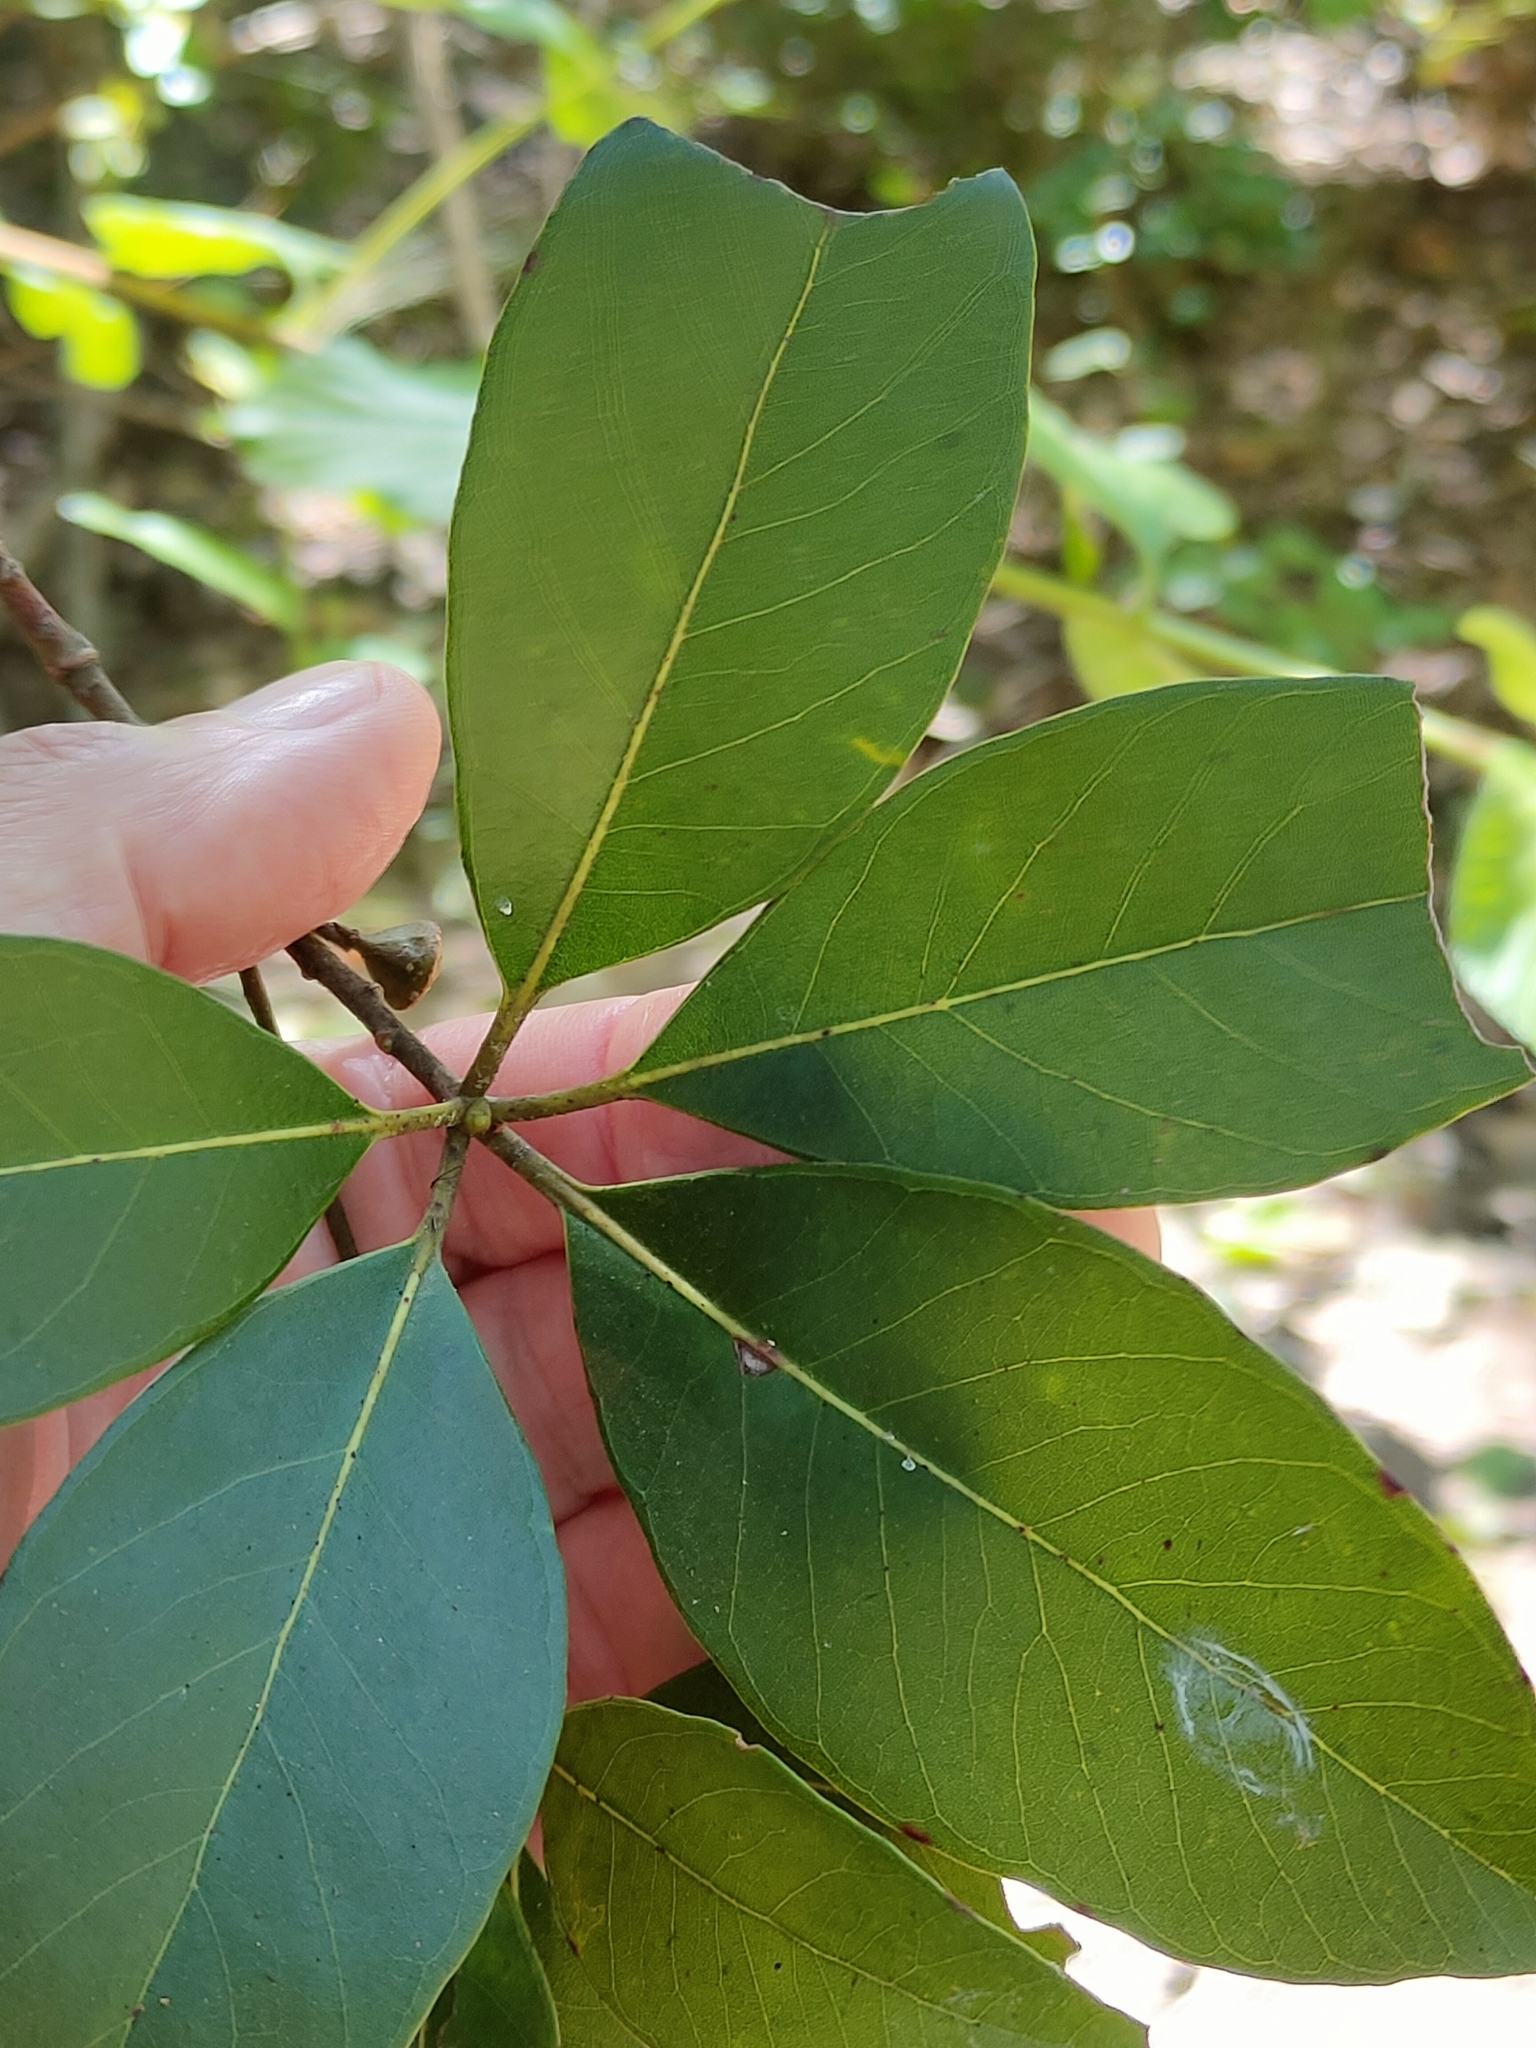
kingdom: Plantae
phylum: Tracheophyta
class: Magnoliopsida
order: Myrtales
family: Myrtaceae
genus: Lophostemon
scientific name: Lophostemon confertus
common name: Brisbane box
